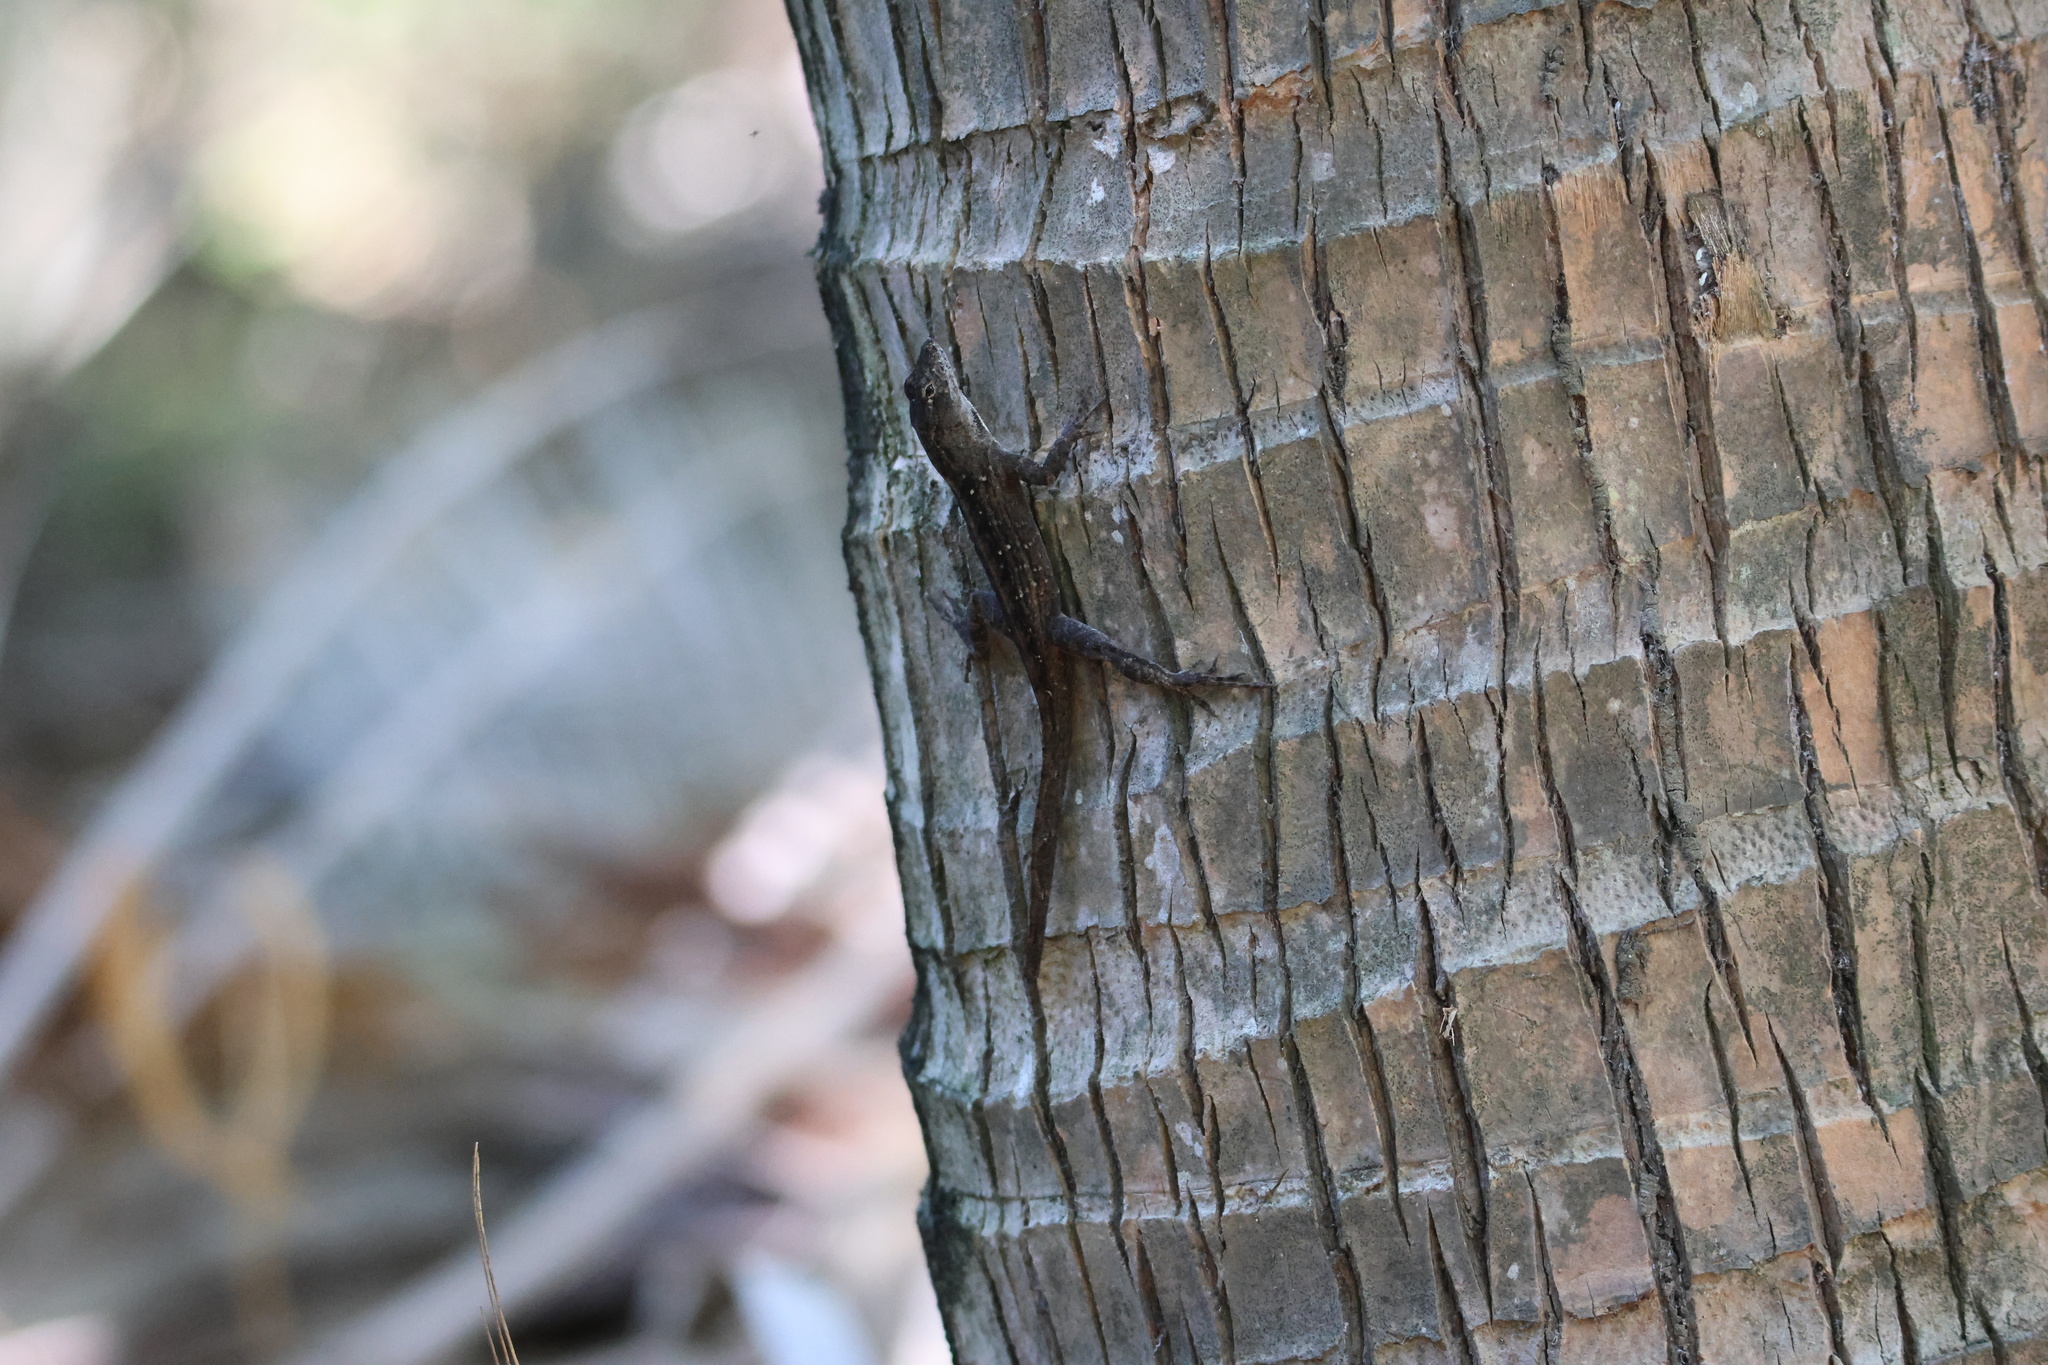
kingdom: Animalia
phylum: Chordata
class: Squamata
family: Dactyloidae
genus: Anolis
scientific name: Anolis sagrei
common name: Brown anole
